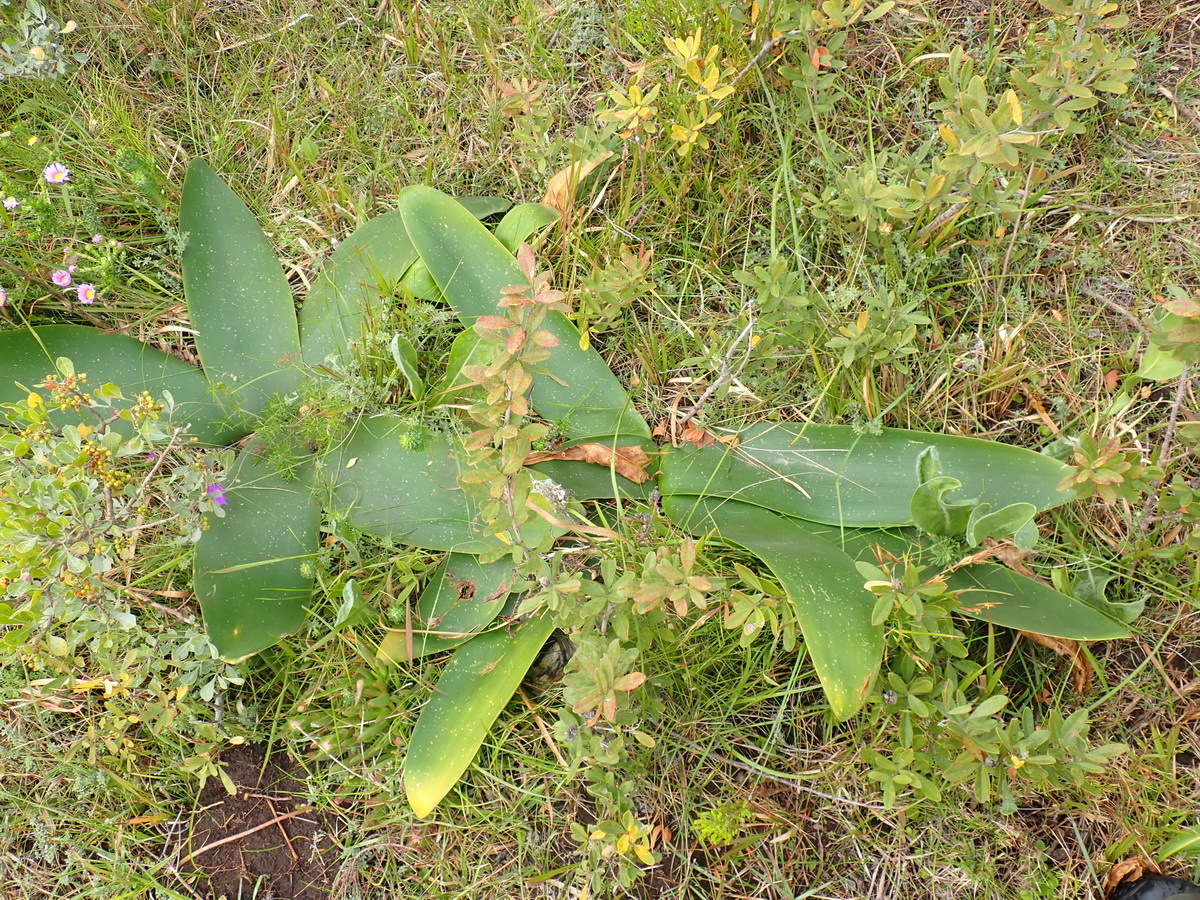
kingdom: Plantae
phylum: Tracheophyta
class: Liliopsida
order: Asparagales
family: Amaryllidaceae
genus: Brunsvigia
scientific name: Brunsvigia orientalis
